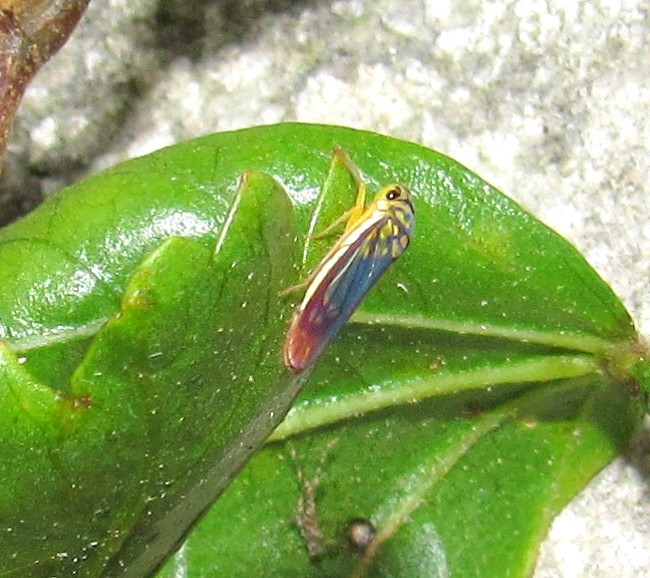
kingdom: Animalia
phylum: Arthropoda
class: Insecta
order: Hemiptera
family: Cicadellidae
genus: Dilobopterus
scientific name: Dilobopterus costalimai
